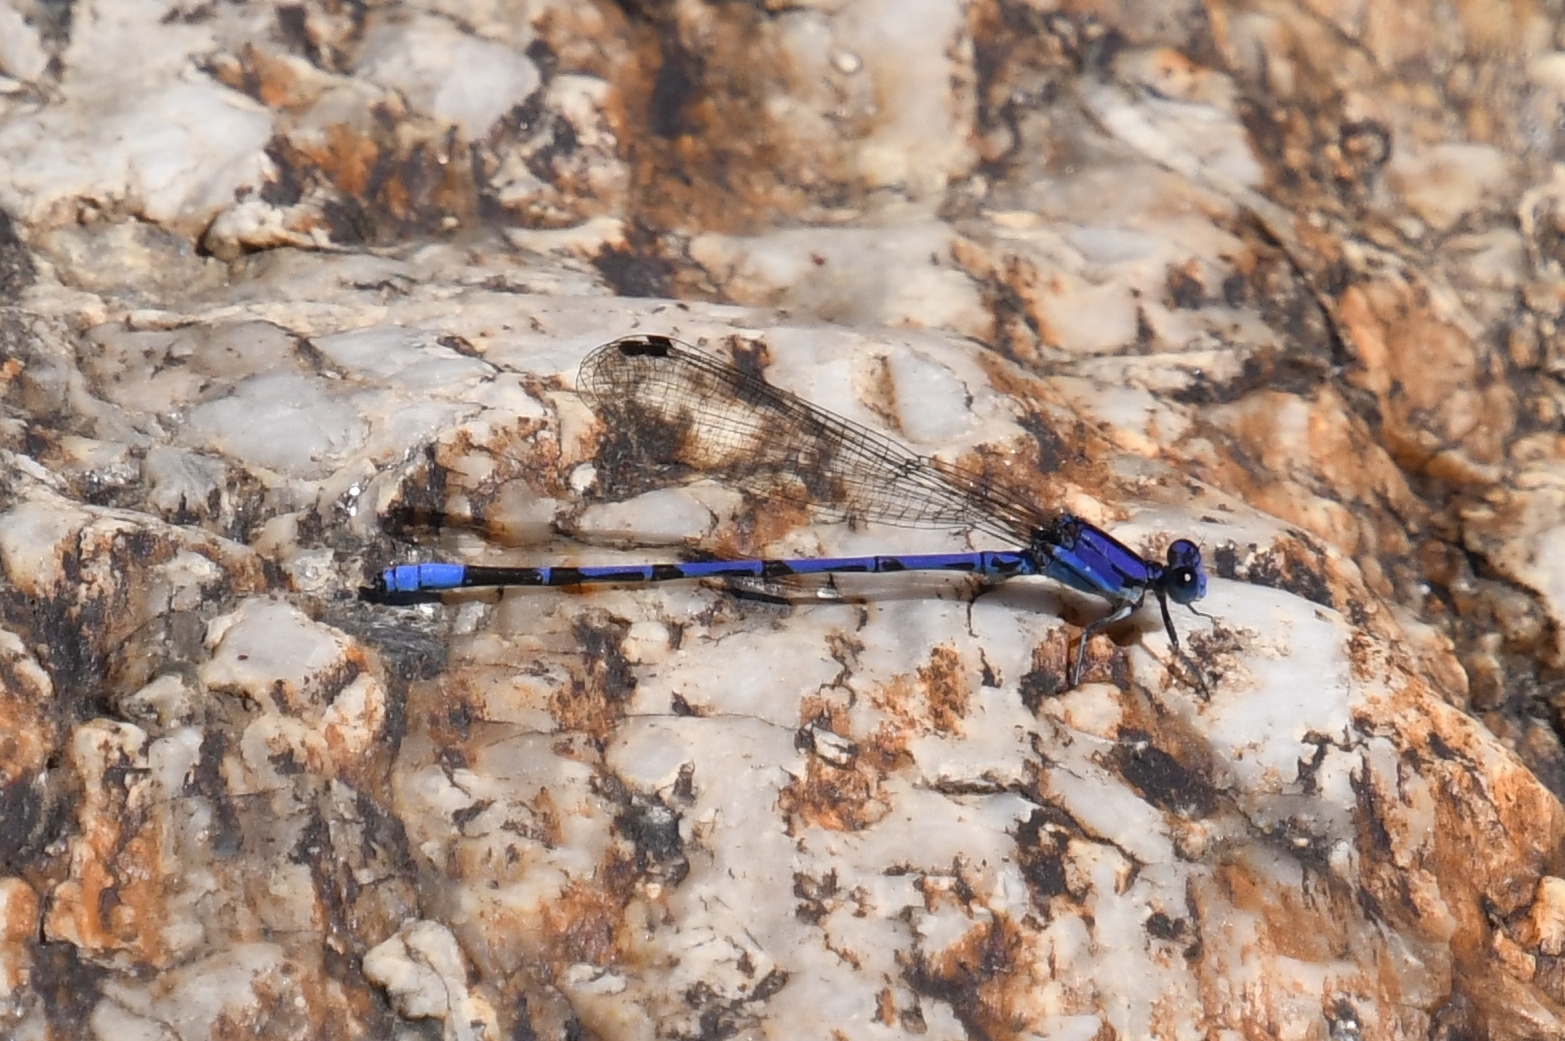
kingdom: Animalia
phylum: Arthropoda
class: Insecta
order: Odonata
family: Coenagrionidae
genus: Argia
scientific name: Argia extranea
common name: Spine-tipped dancer
